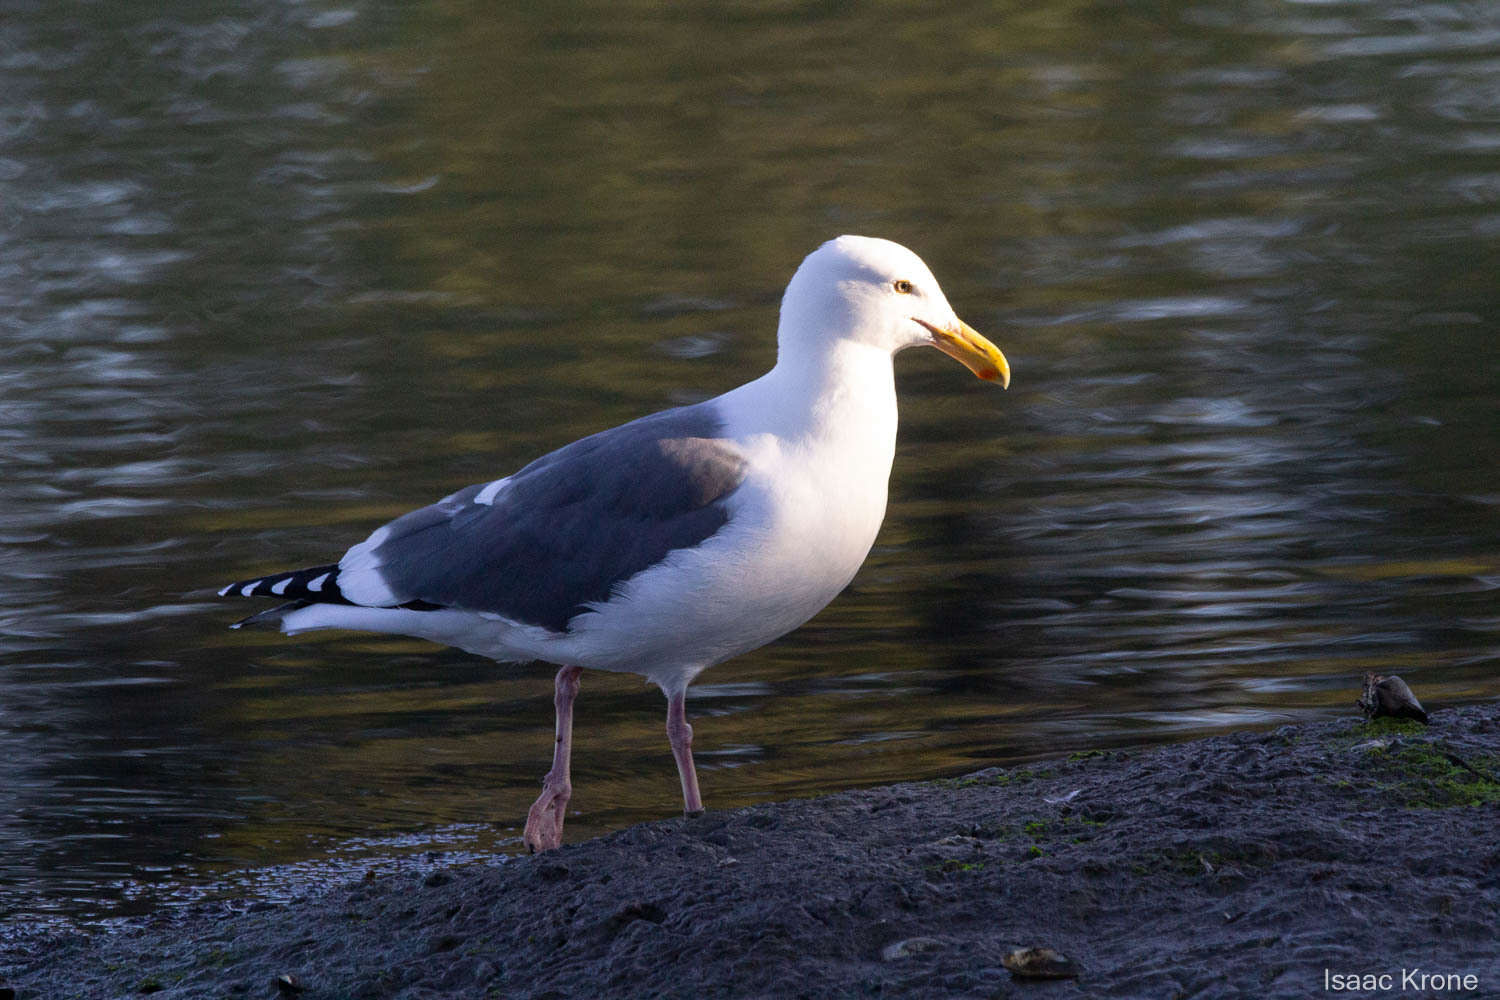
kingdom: Animalia
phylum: Chordata
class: Aves
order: Charadriiformes
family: Laridae
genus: Larus
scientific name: Larus occidentalis
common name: Western gull
